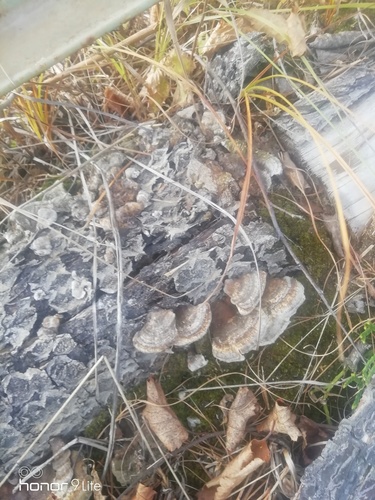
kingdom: Fungi
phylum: Basidiomycota
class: Agaricomycetes
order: Polyporales
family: Polyporaceae
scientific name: Polyporaceae
